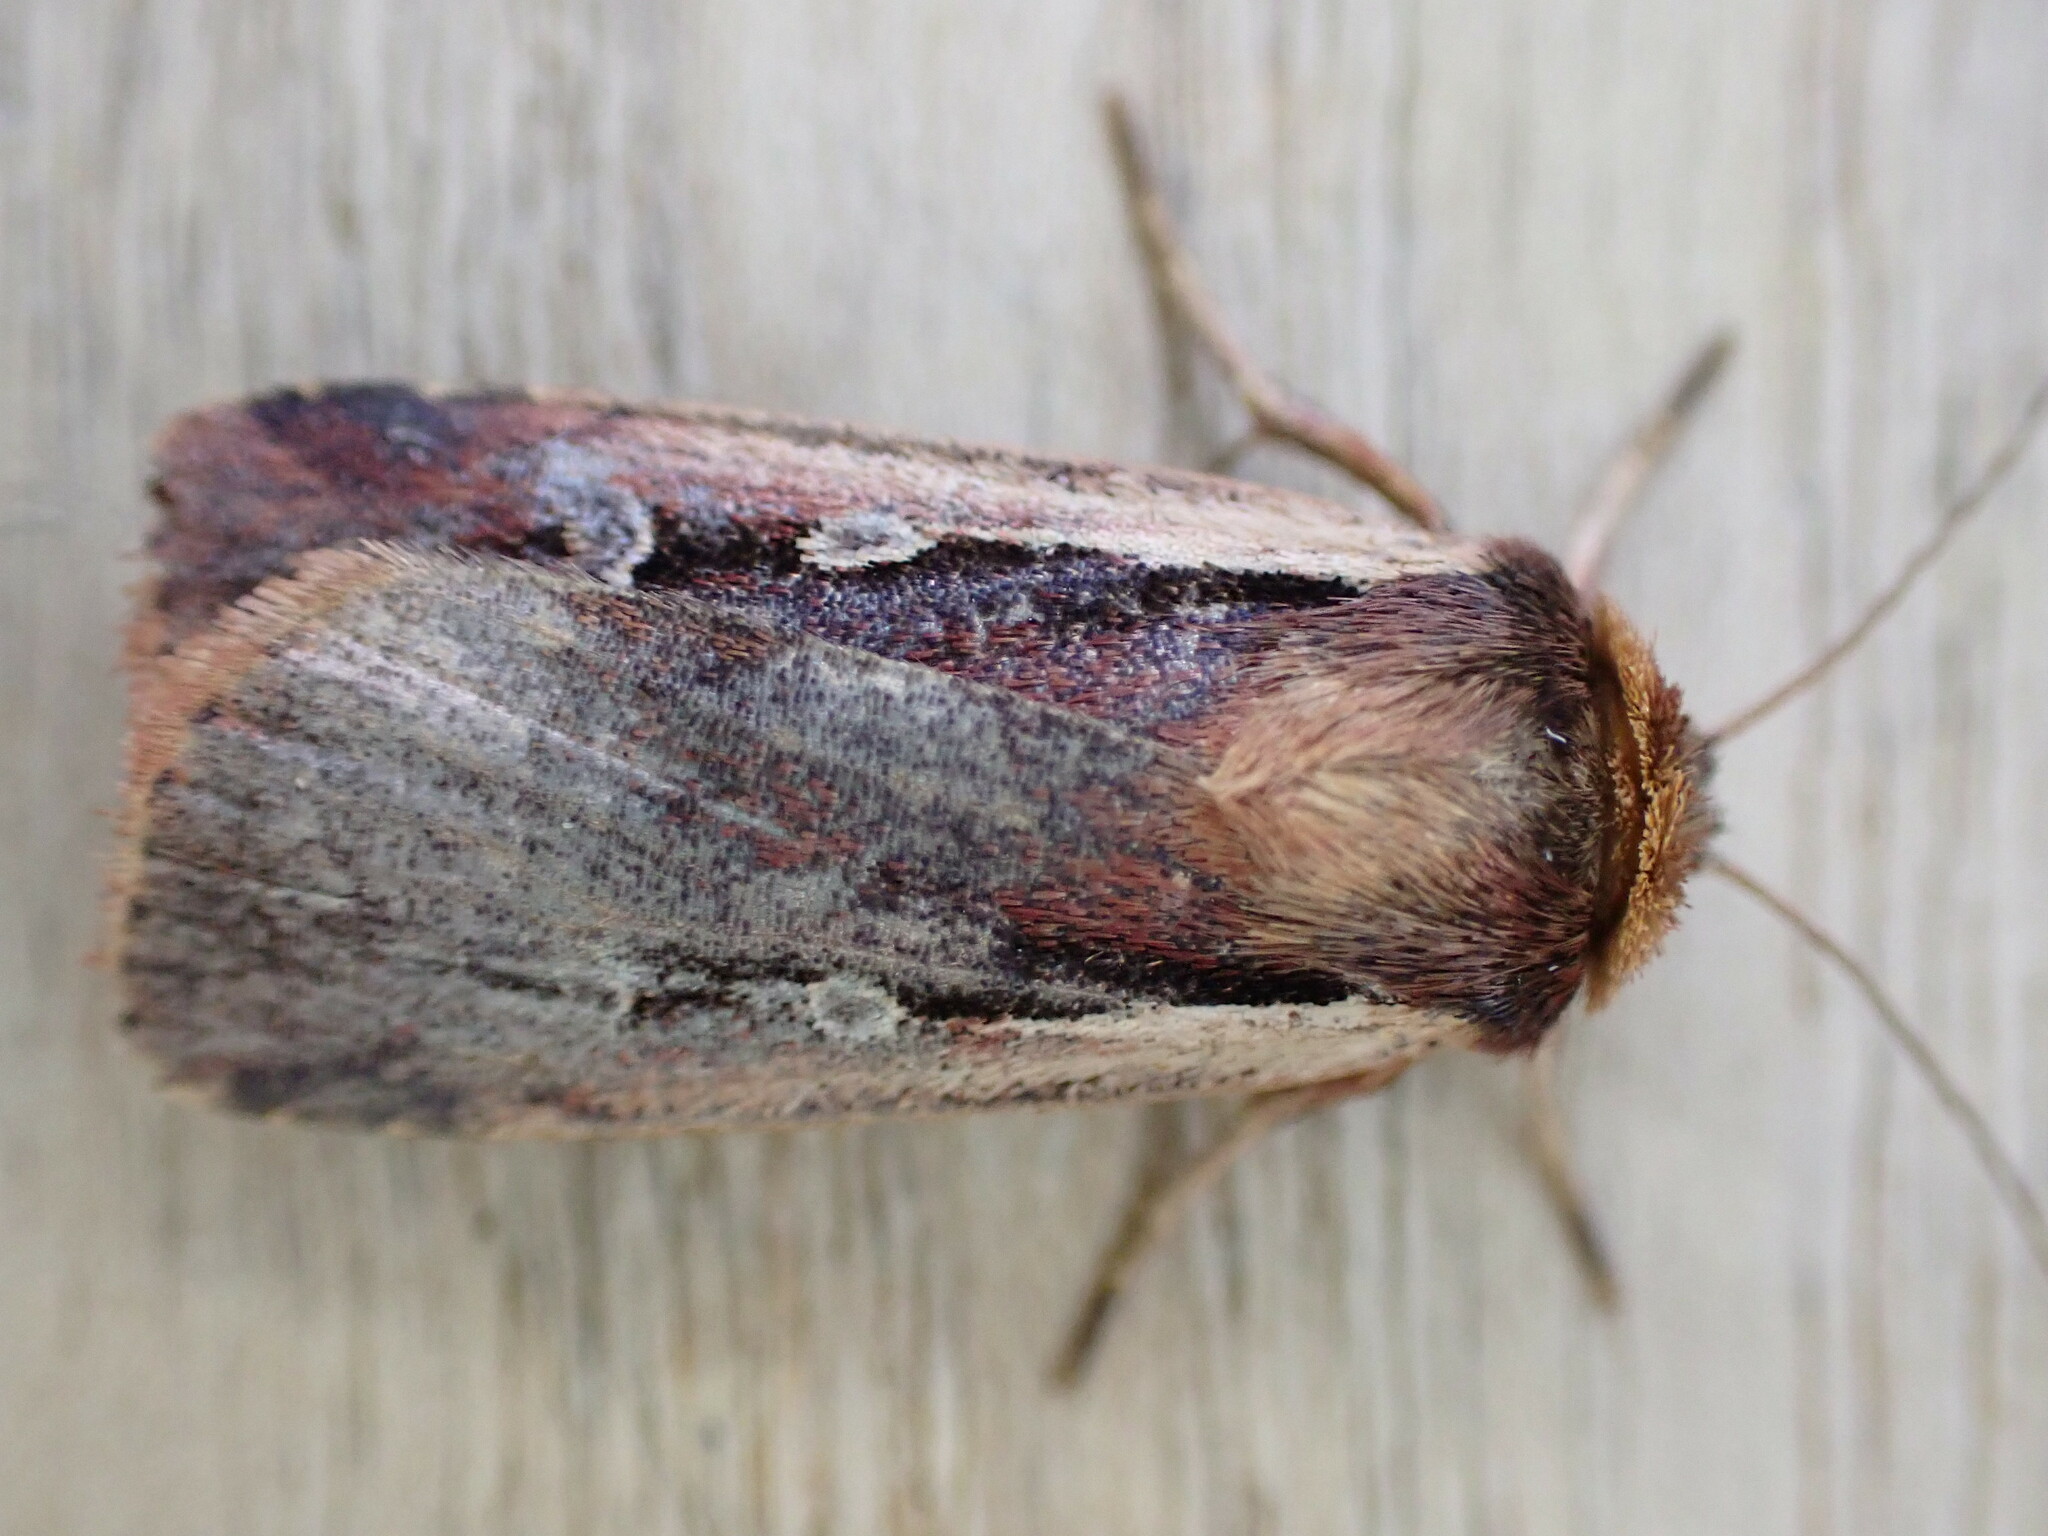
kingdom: Animalia
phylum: Arthropoda
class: Insecta
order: Lepidoptera
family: Noctuidae
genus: Ochropleura
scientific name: Ochropleura plecta
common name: Flame shoulder
